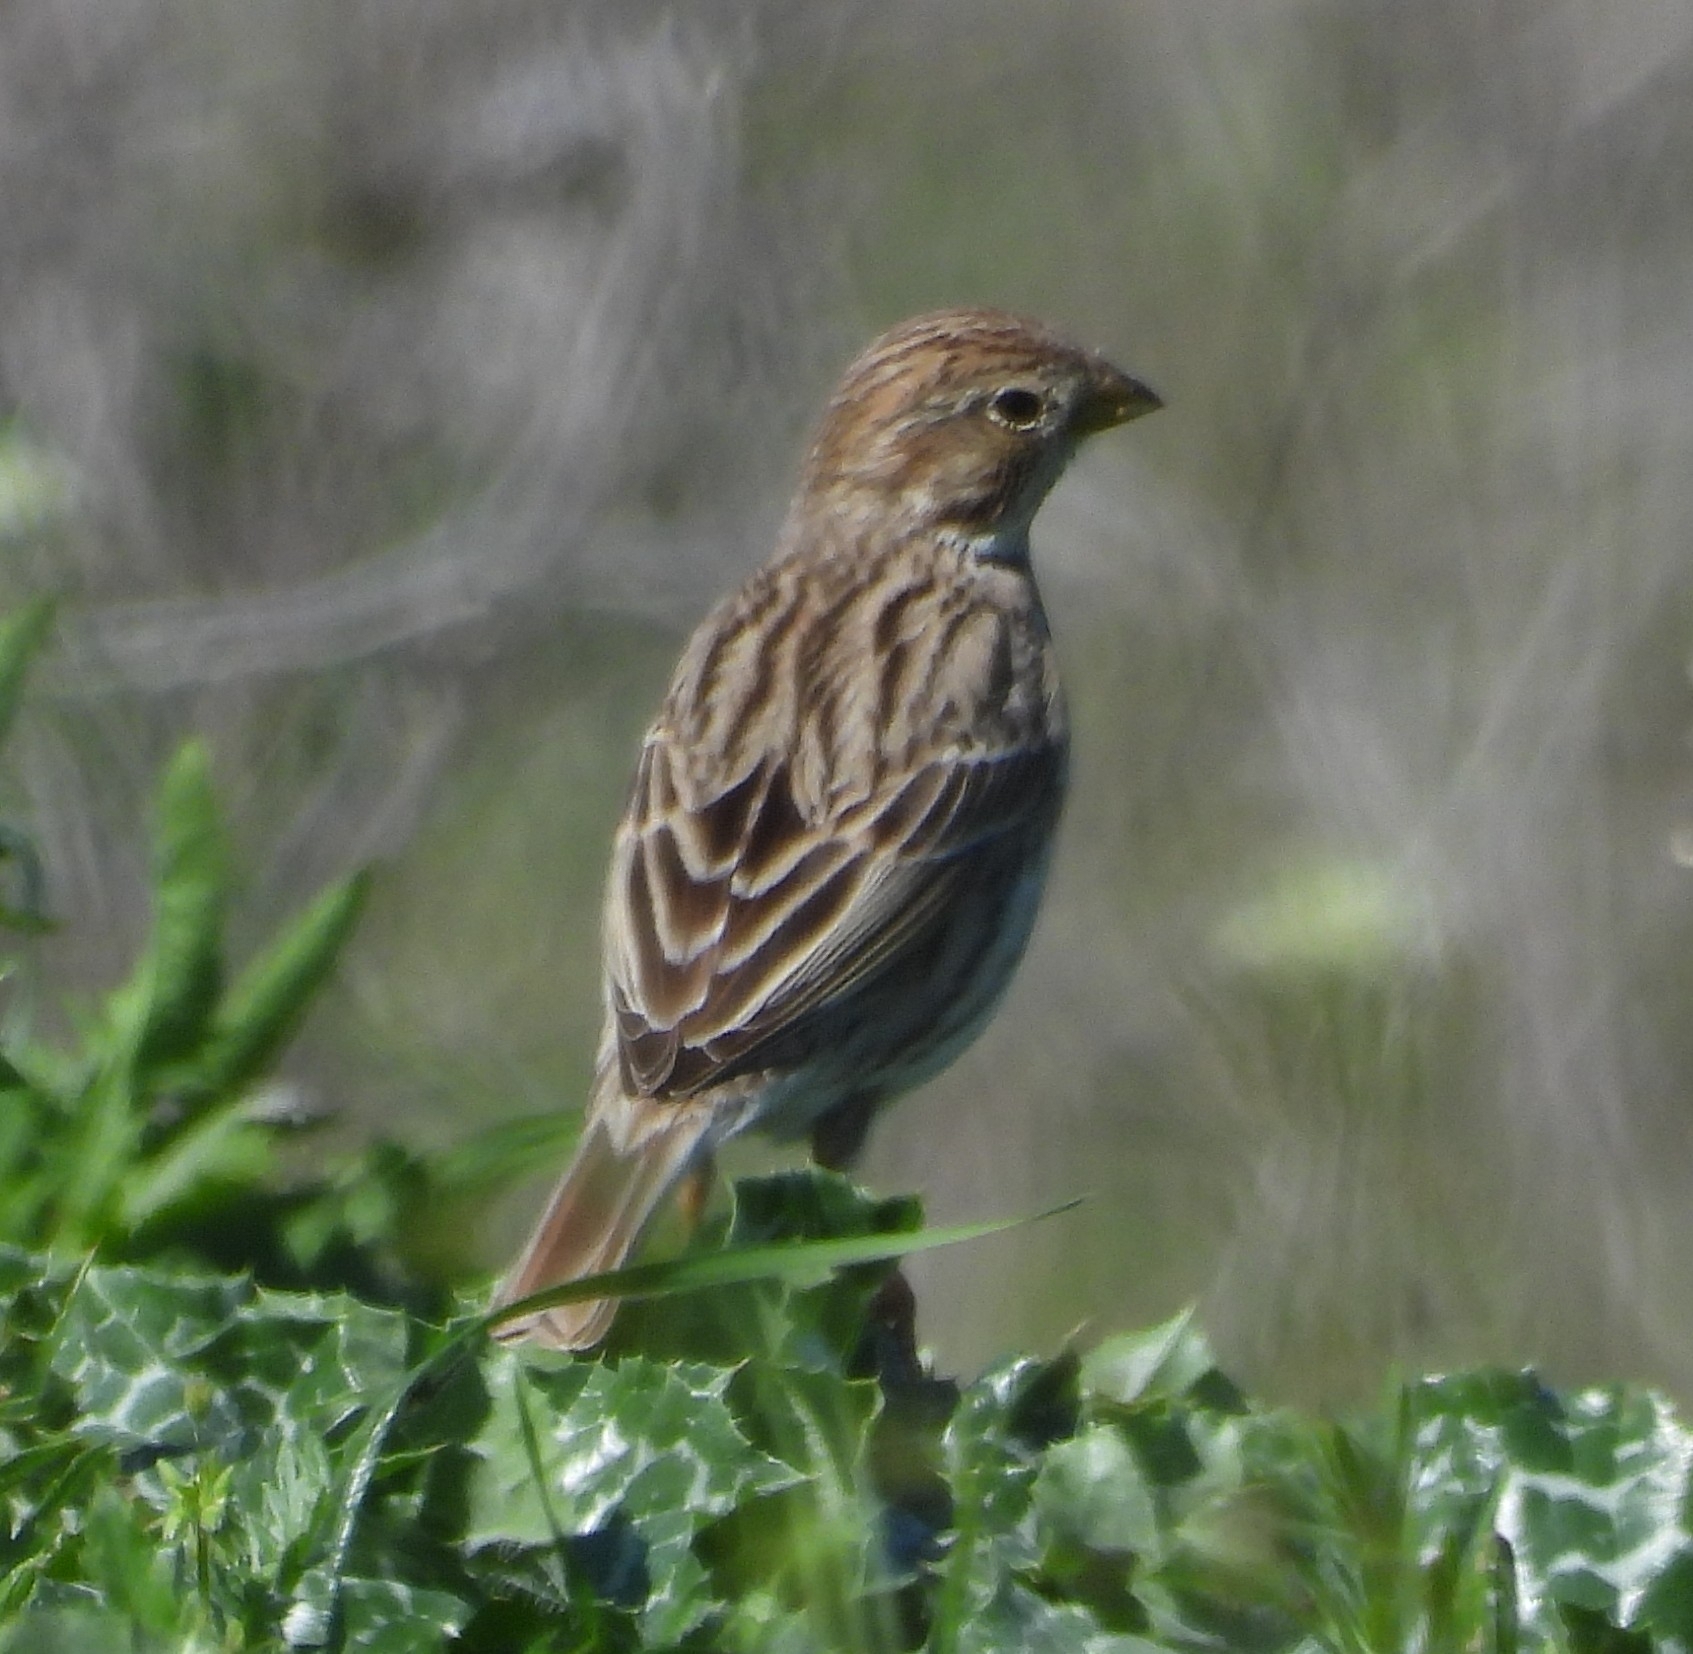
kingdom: Animalia
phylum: Chordata
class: Aves
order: Passeriformes
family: Emberizidae
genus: Emberiza
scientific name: Emberiza calandra
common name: Corn bunting
